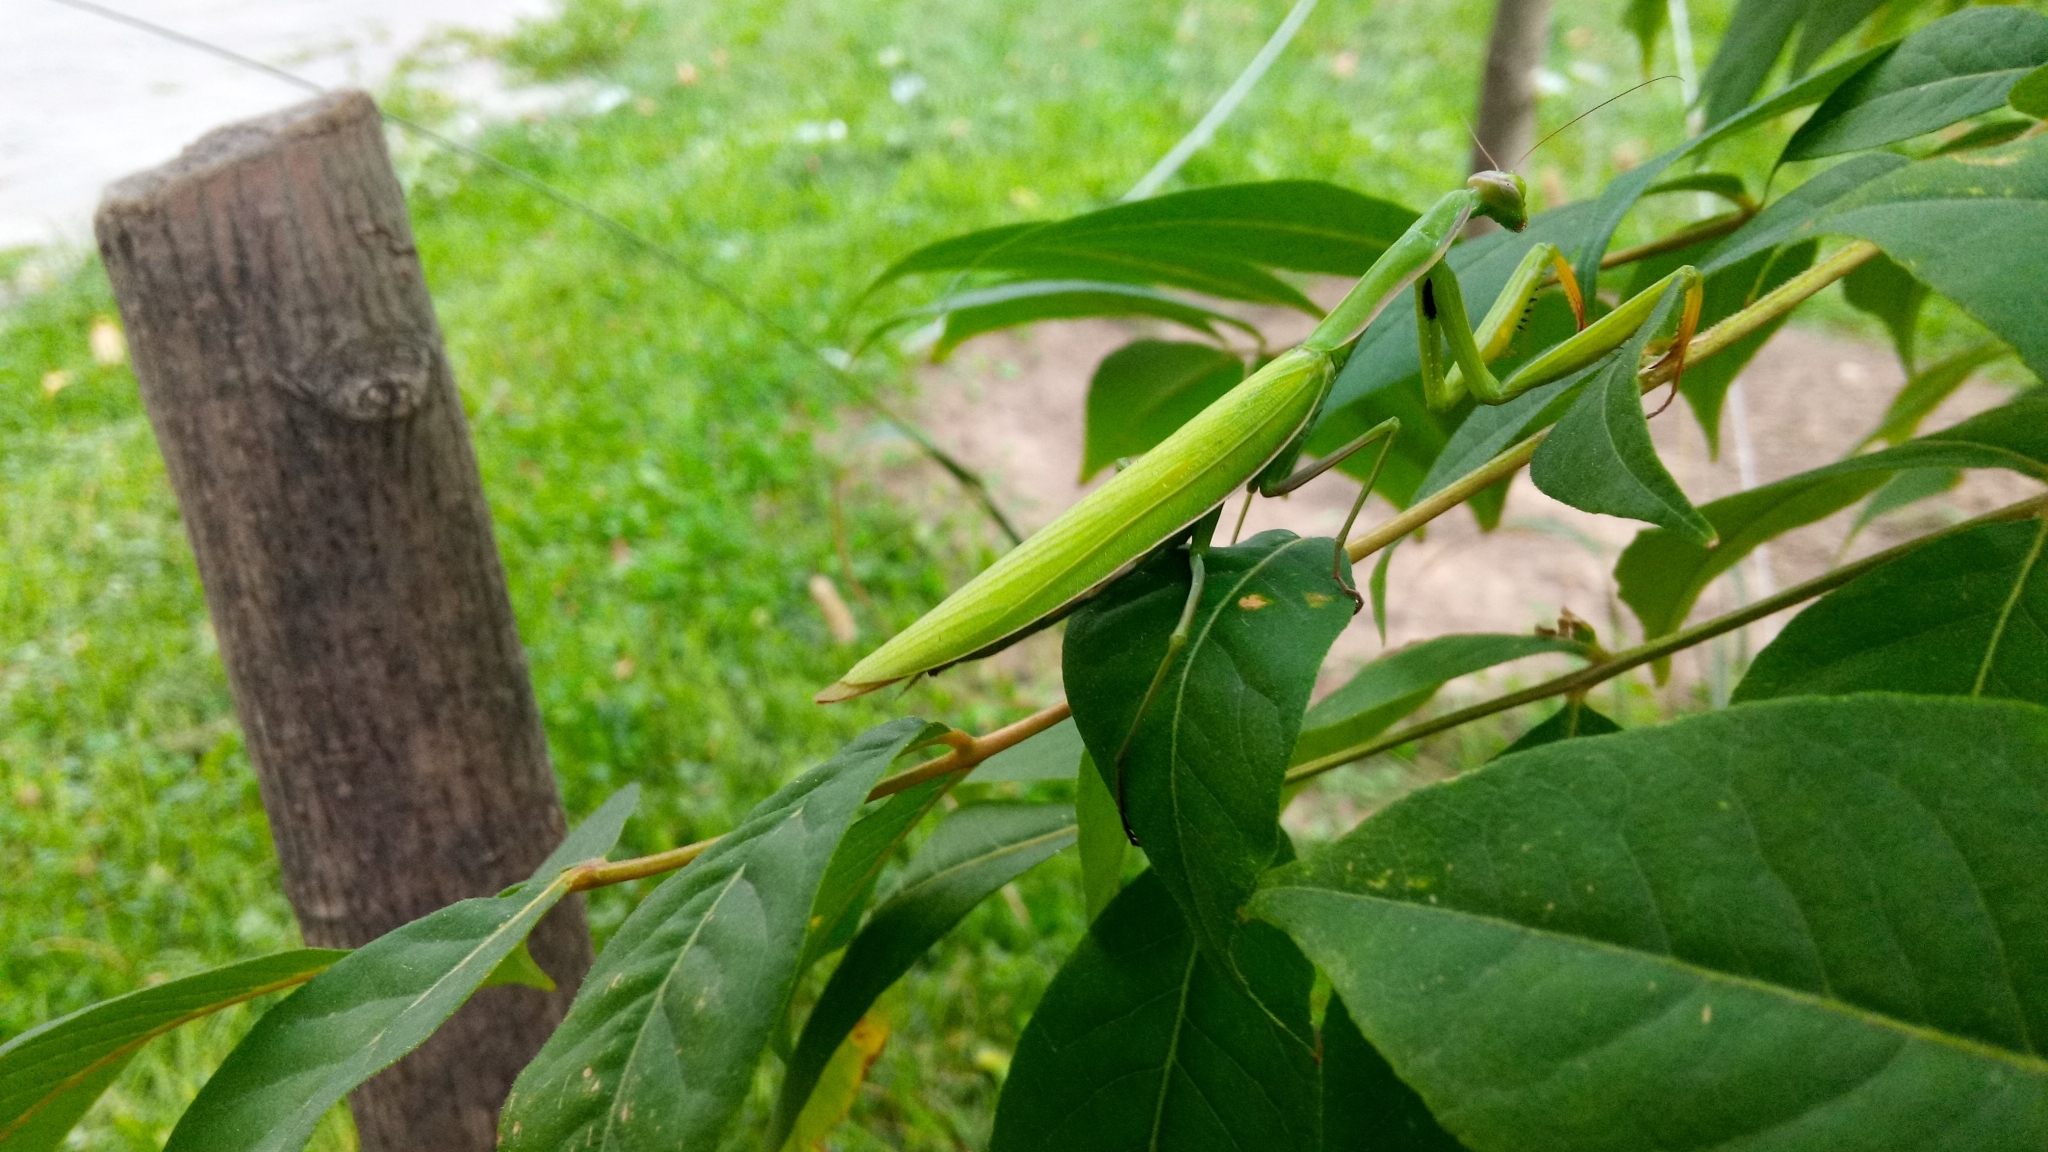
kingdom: Animalia
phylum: Arthropoda
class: Insecta
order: Mantodea
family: Mantidae
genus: Mantis
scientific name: Mantis religiosa
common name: Praying mantis
